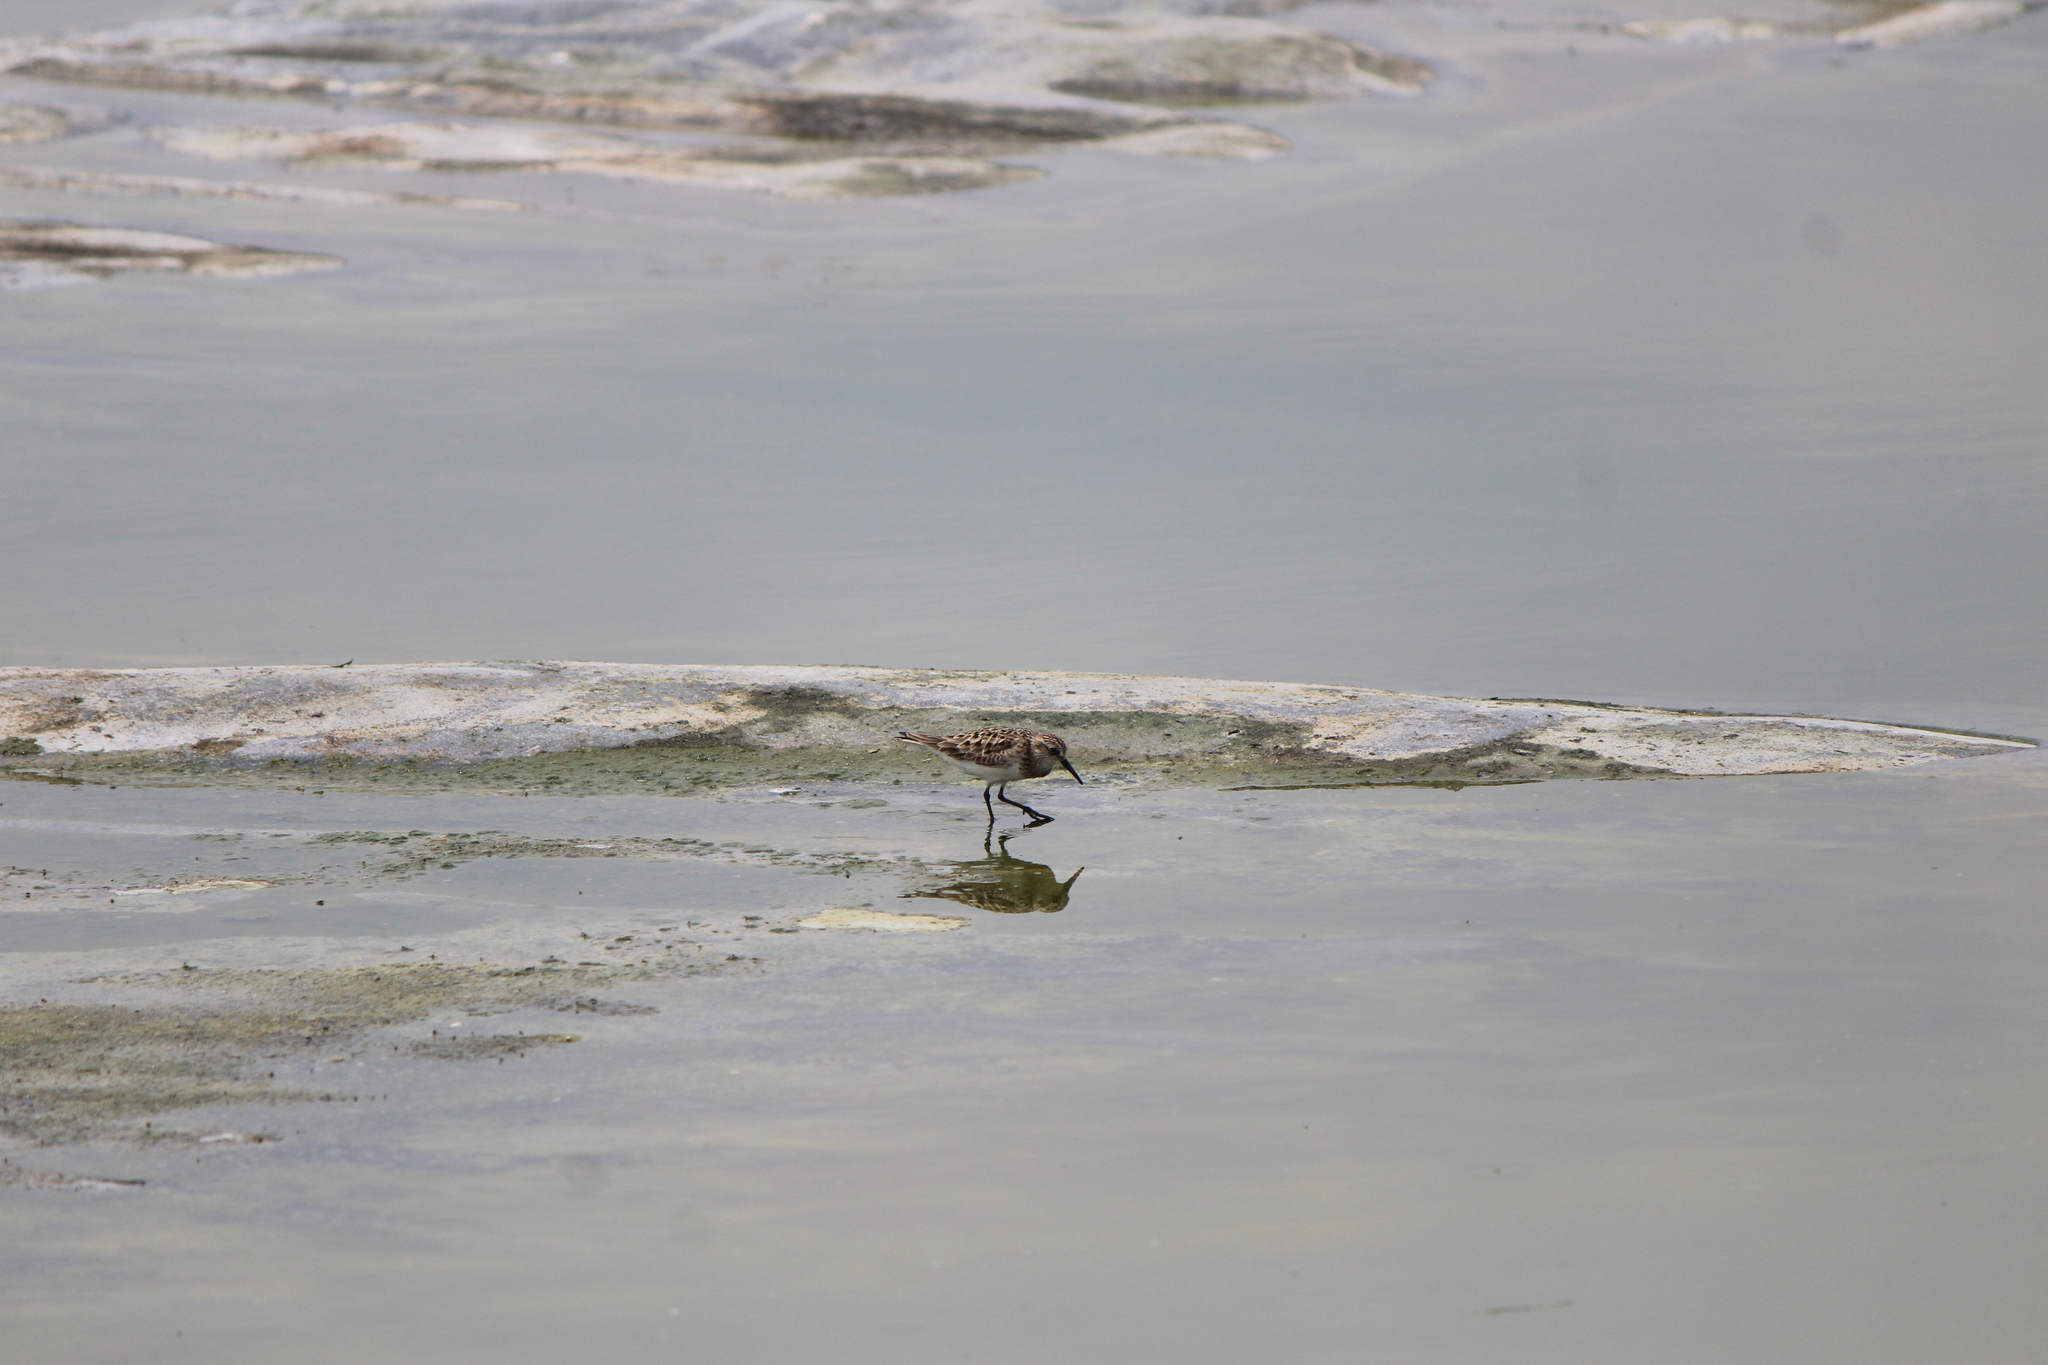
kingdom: Animalia
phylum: Chordata
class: Aves
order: Charadriiformes
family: Scolopacidae
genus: Calidris
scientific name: Calidris bairdii
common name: Baird's sandpiper
